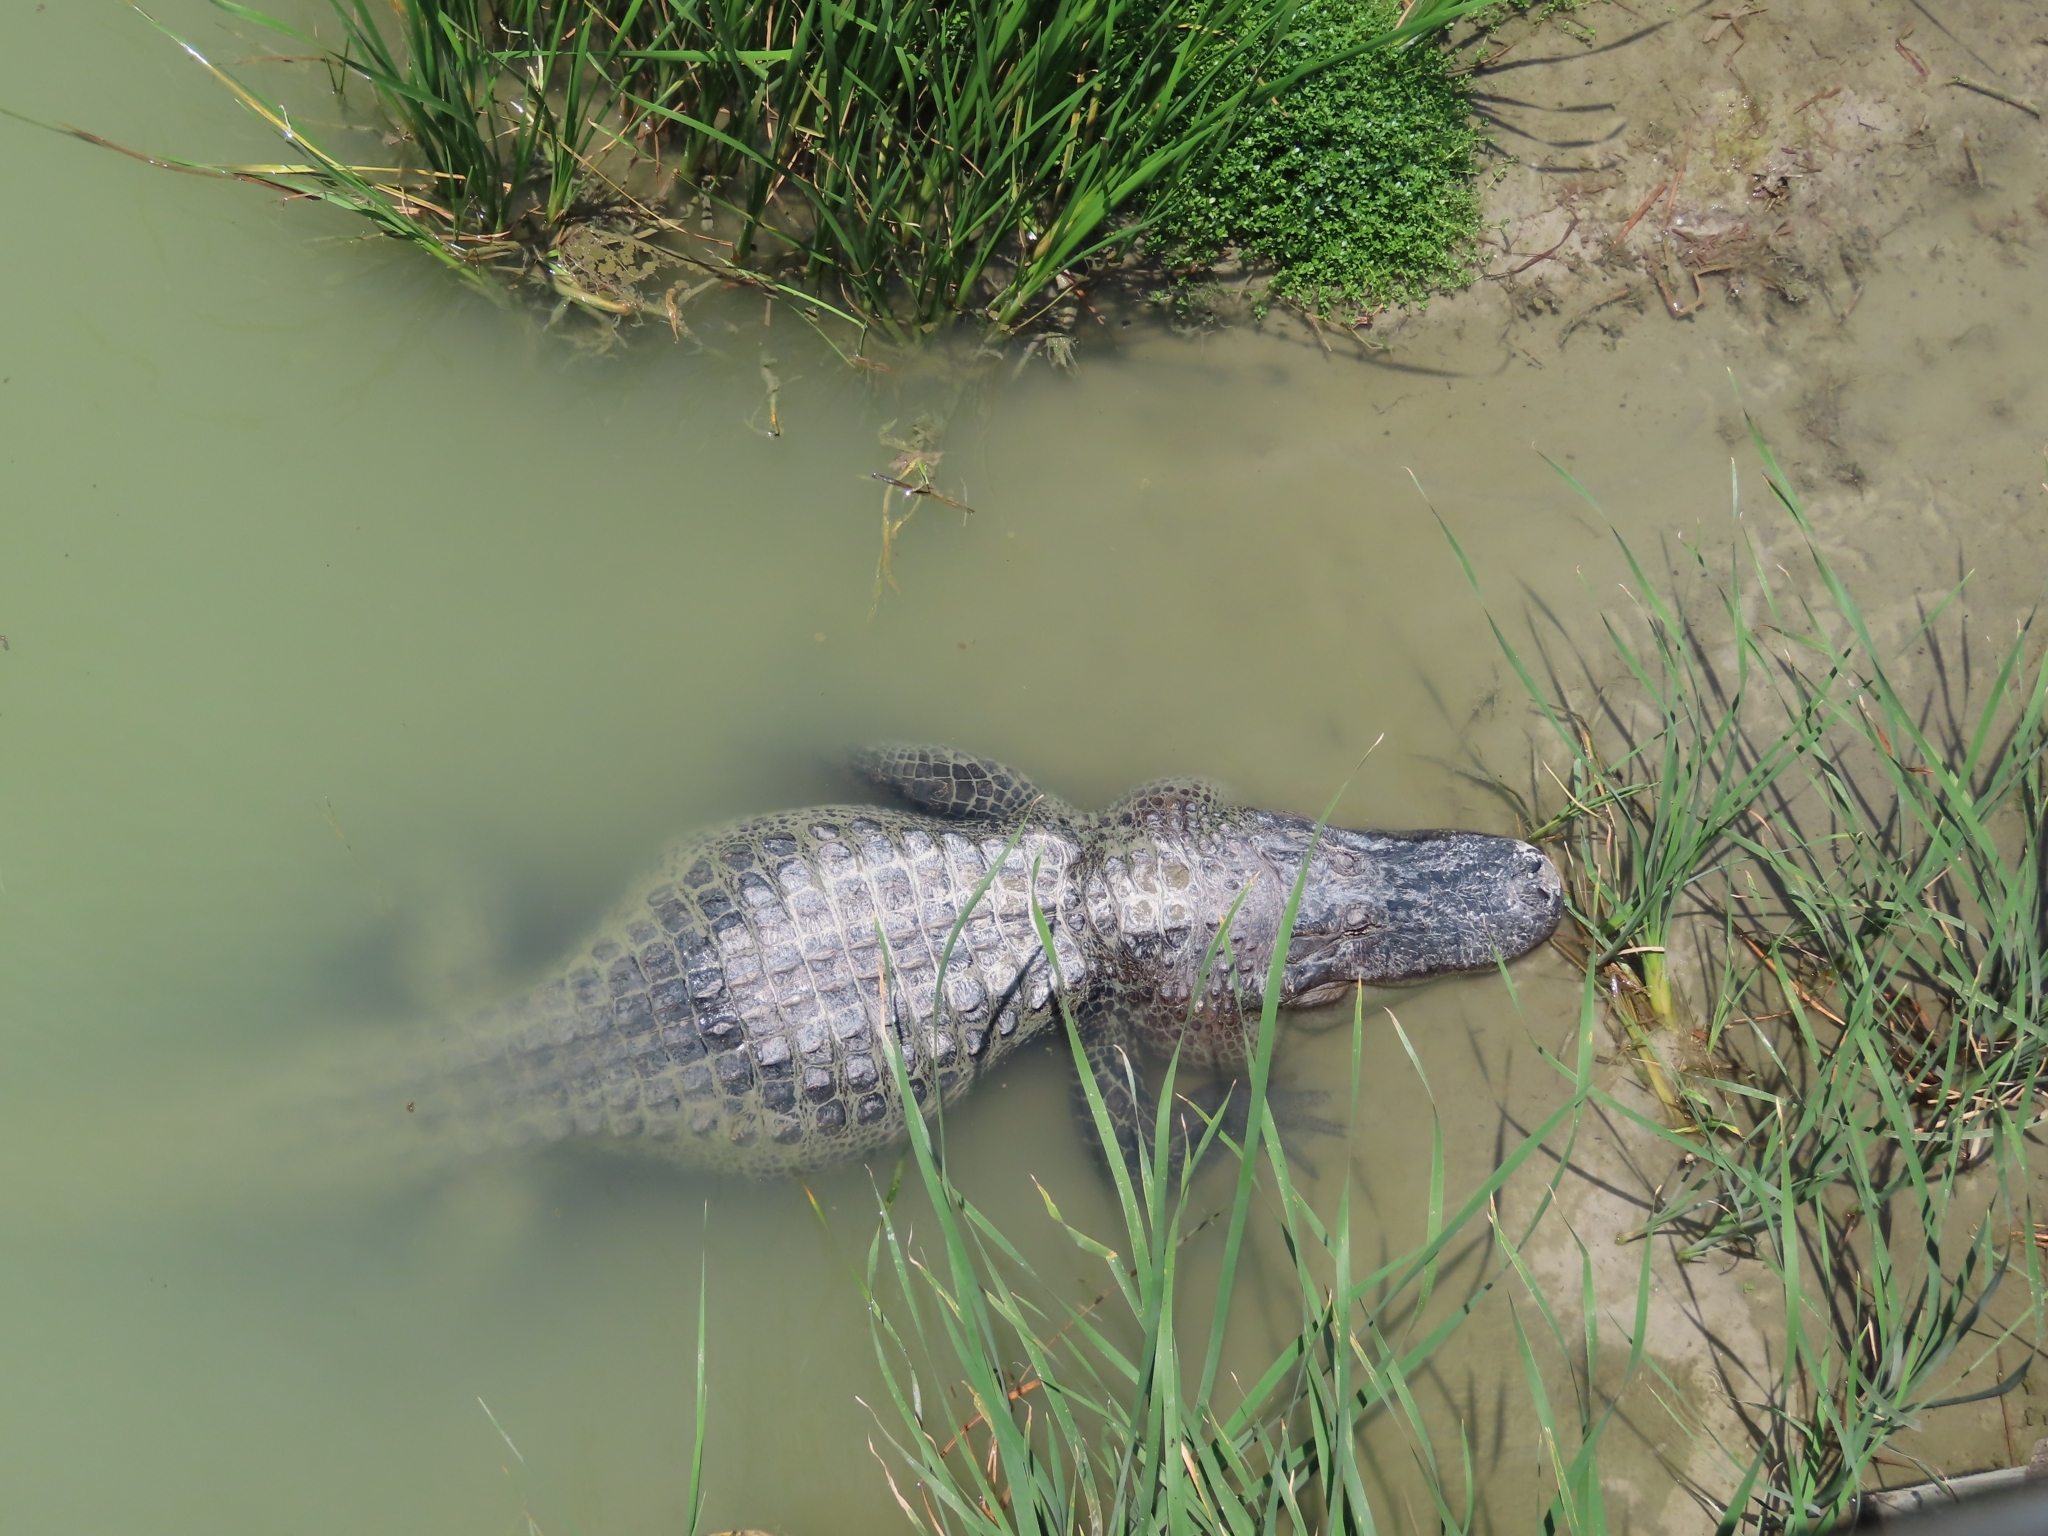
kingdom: Animalia
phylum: Chordata
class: Crocodylia
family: Alligatoridae
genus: Alligator
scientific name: Alligator mississippiensis
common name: American alligator
